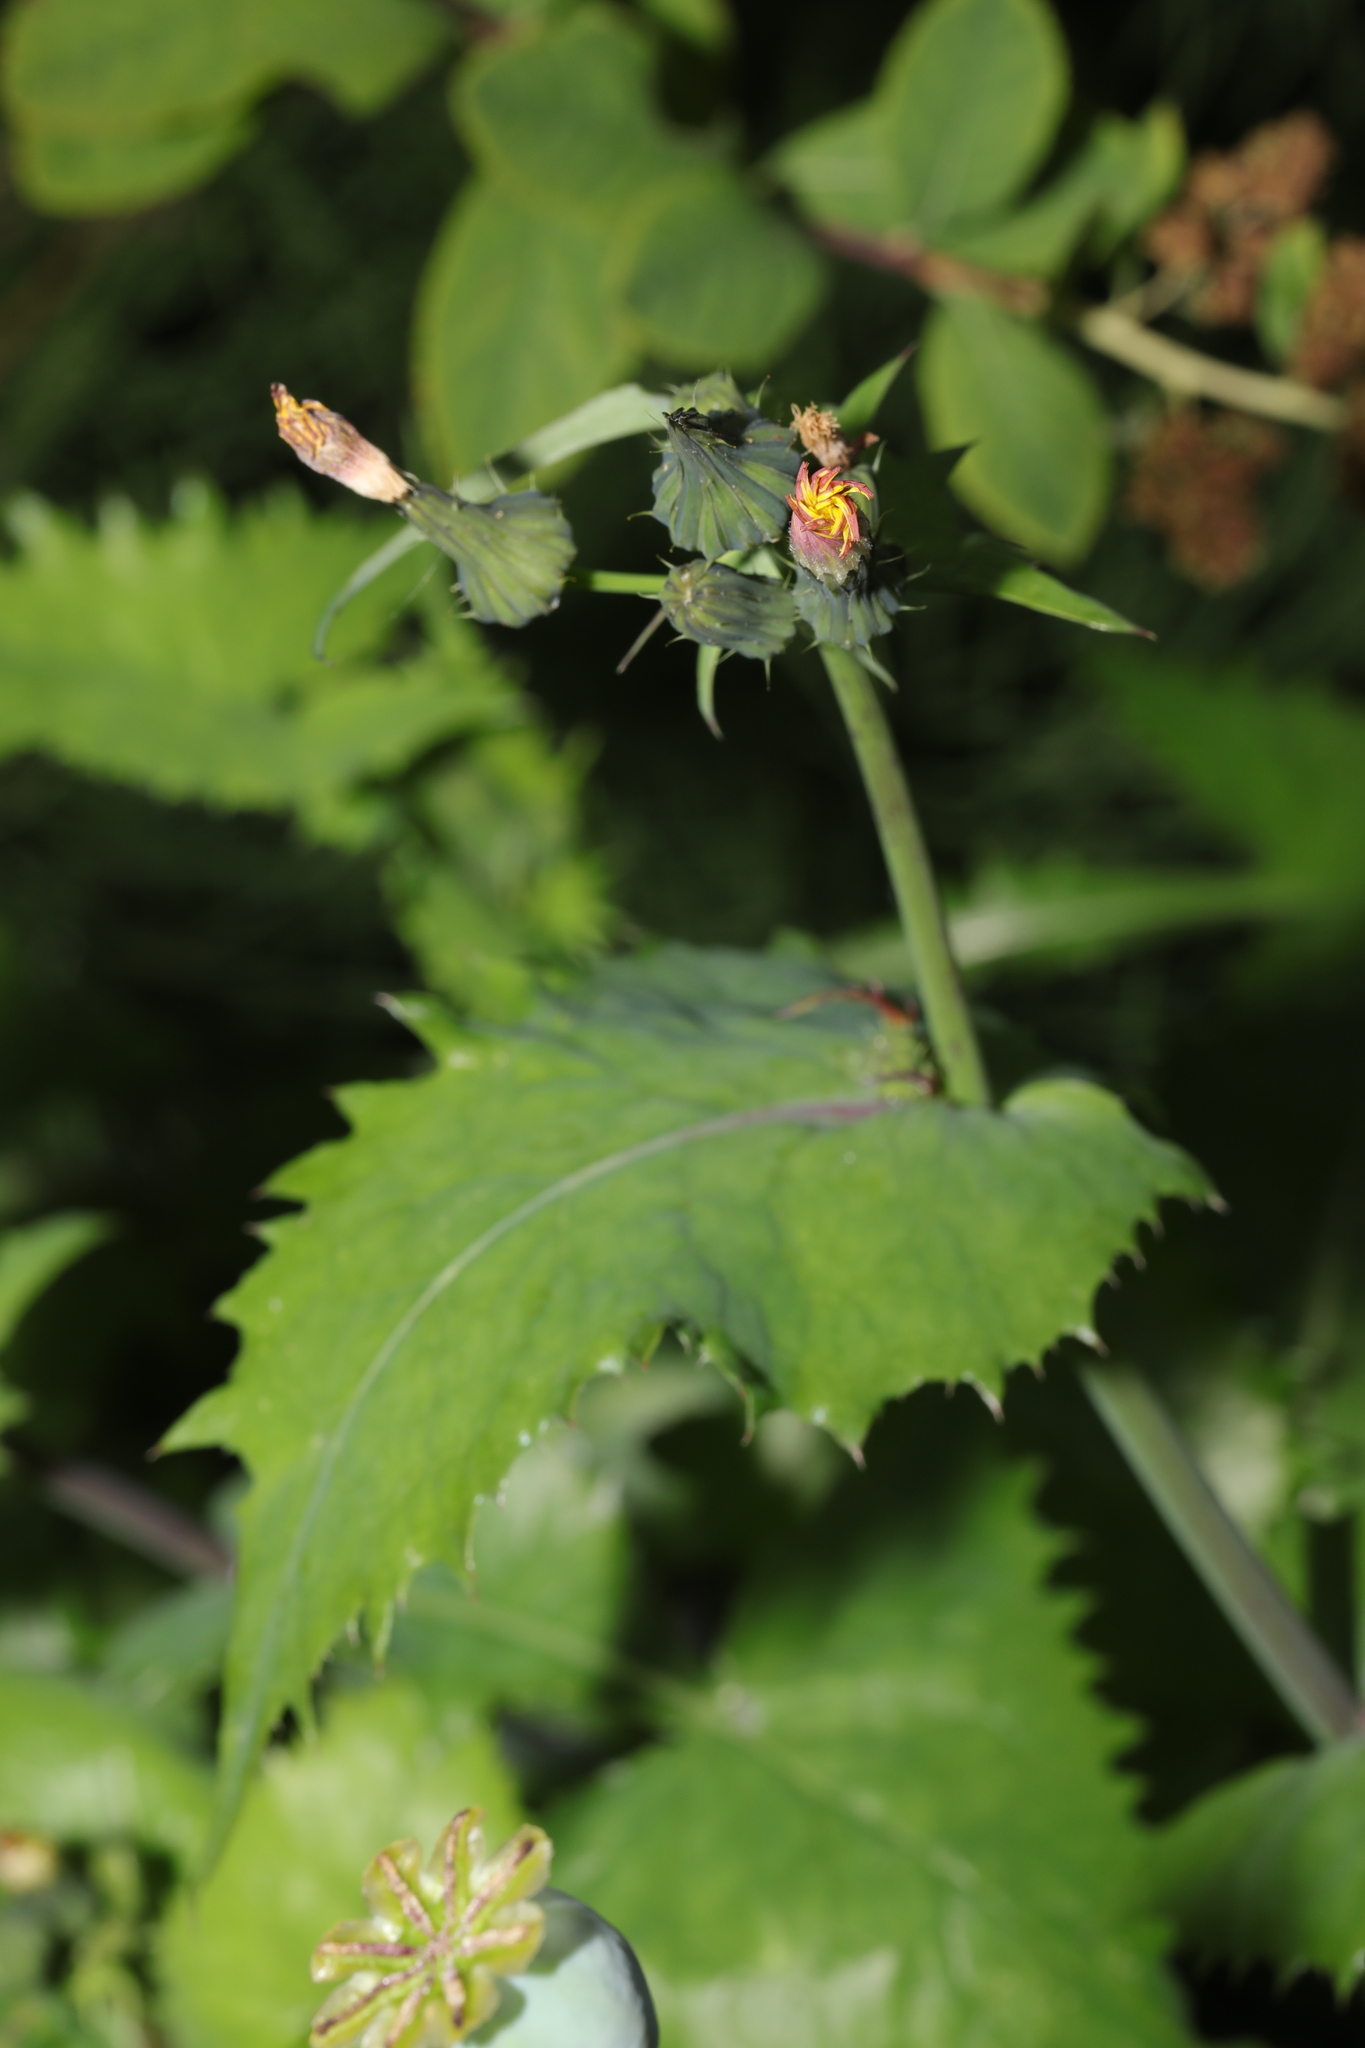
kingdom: Plantae
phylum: Tracheophyta
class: Magnoliopsida
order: Asterales
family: Asteraceae
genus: Sonchus
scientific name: Sonchus oleraceus
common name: Common sowthistle
